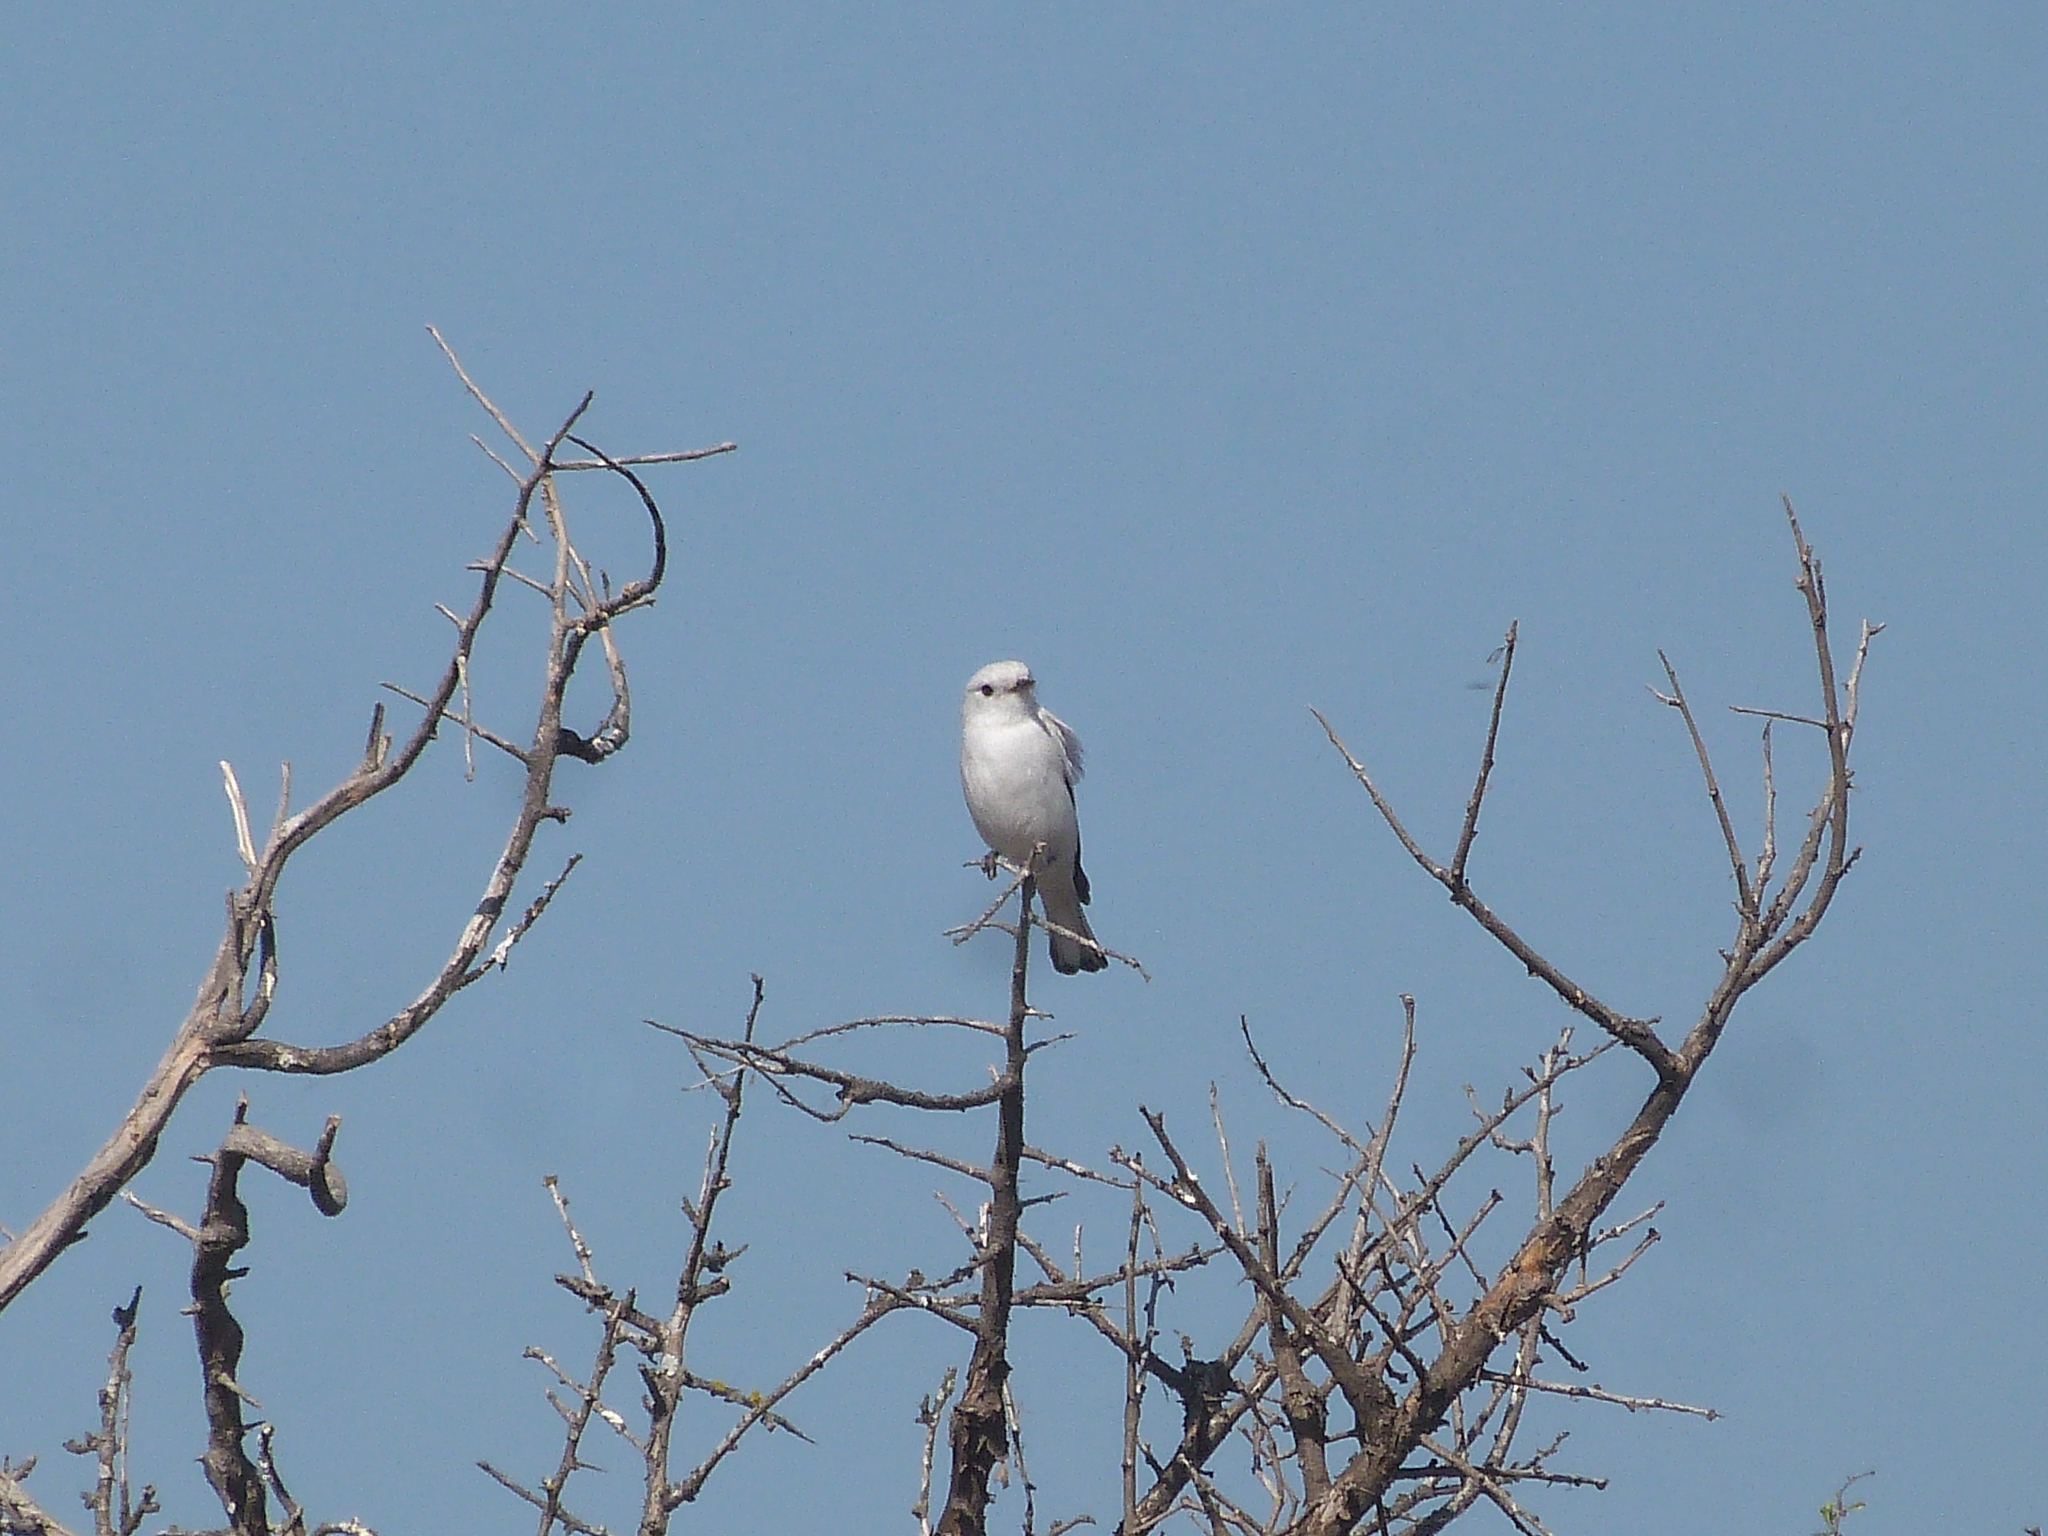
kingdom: Animalia
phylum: Chordata
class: Aves
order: Passeriformes
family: Tyrannidae
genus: Xolmis
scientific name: Xolmis irupero
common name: White monjita
